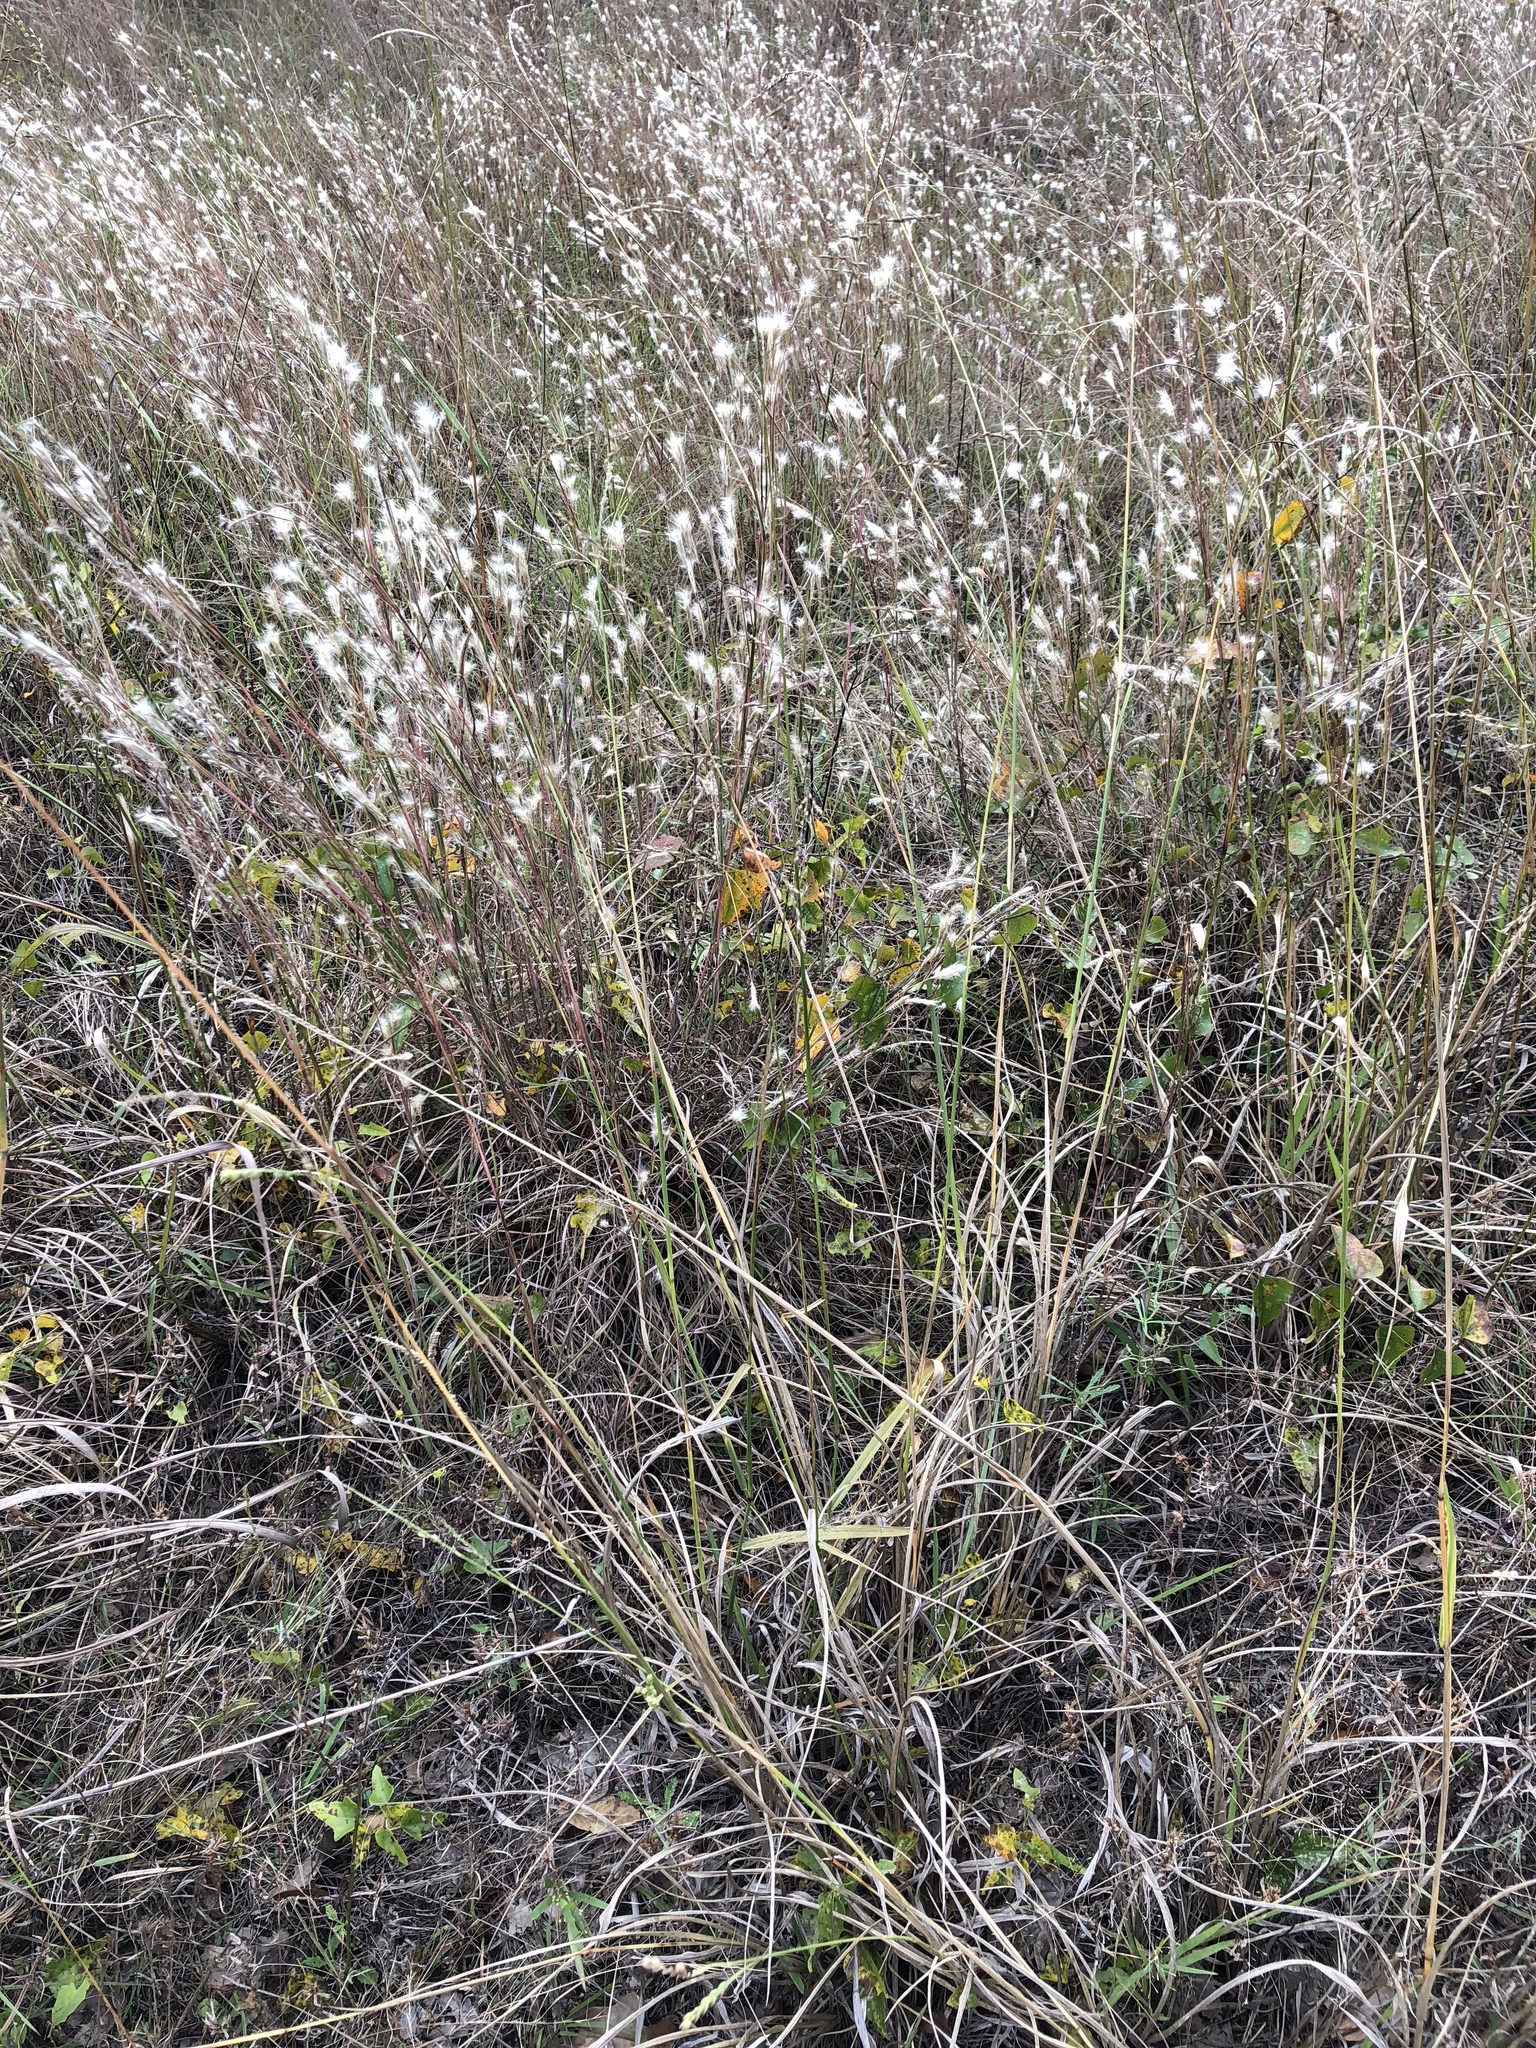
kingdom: Plantae
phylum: Tracheophyta
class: Liliopsida
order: Poales
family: Poaceae
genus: Paspalum
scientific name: Paspalum floridanum
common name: Florida paspalum
